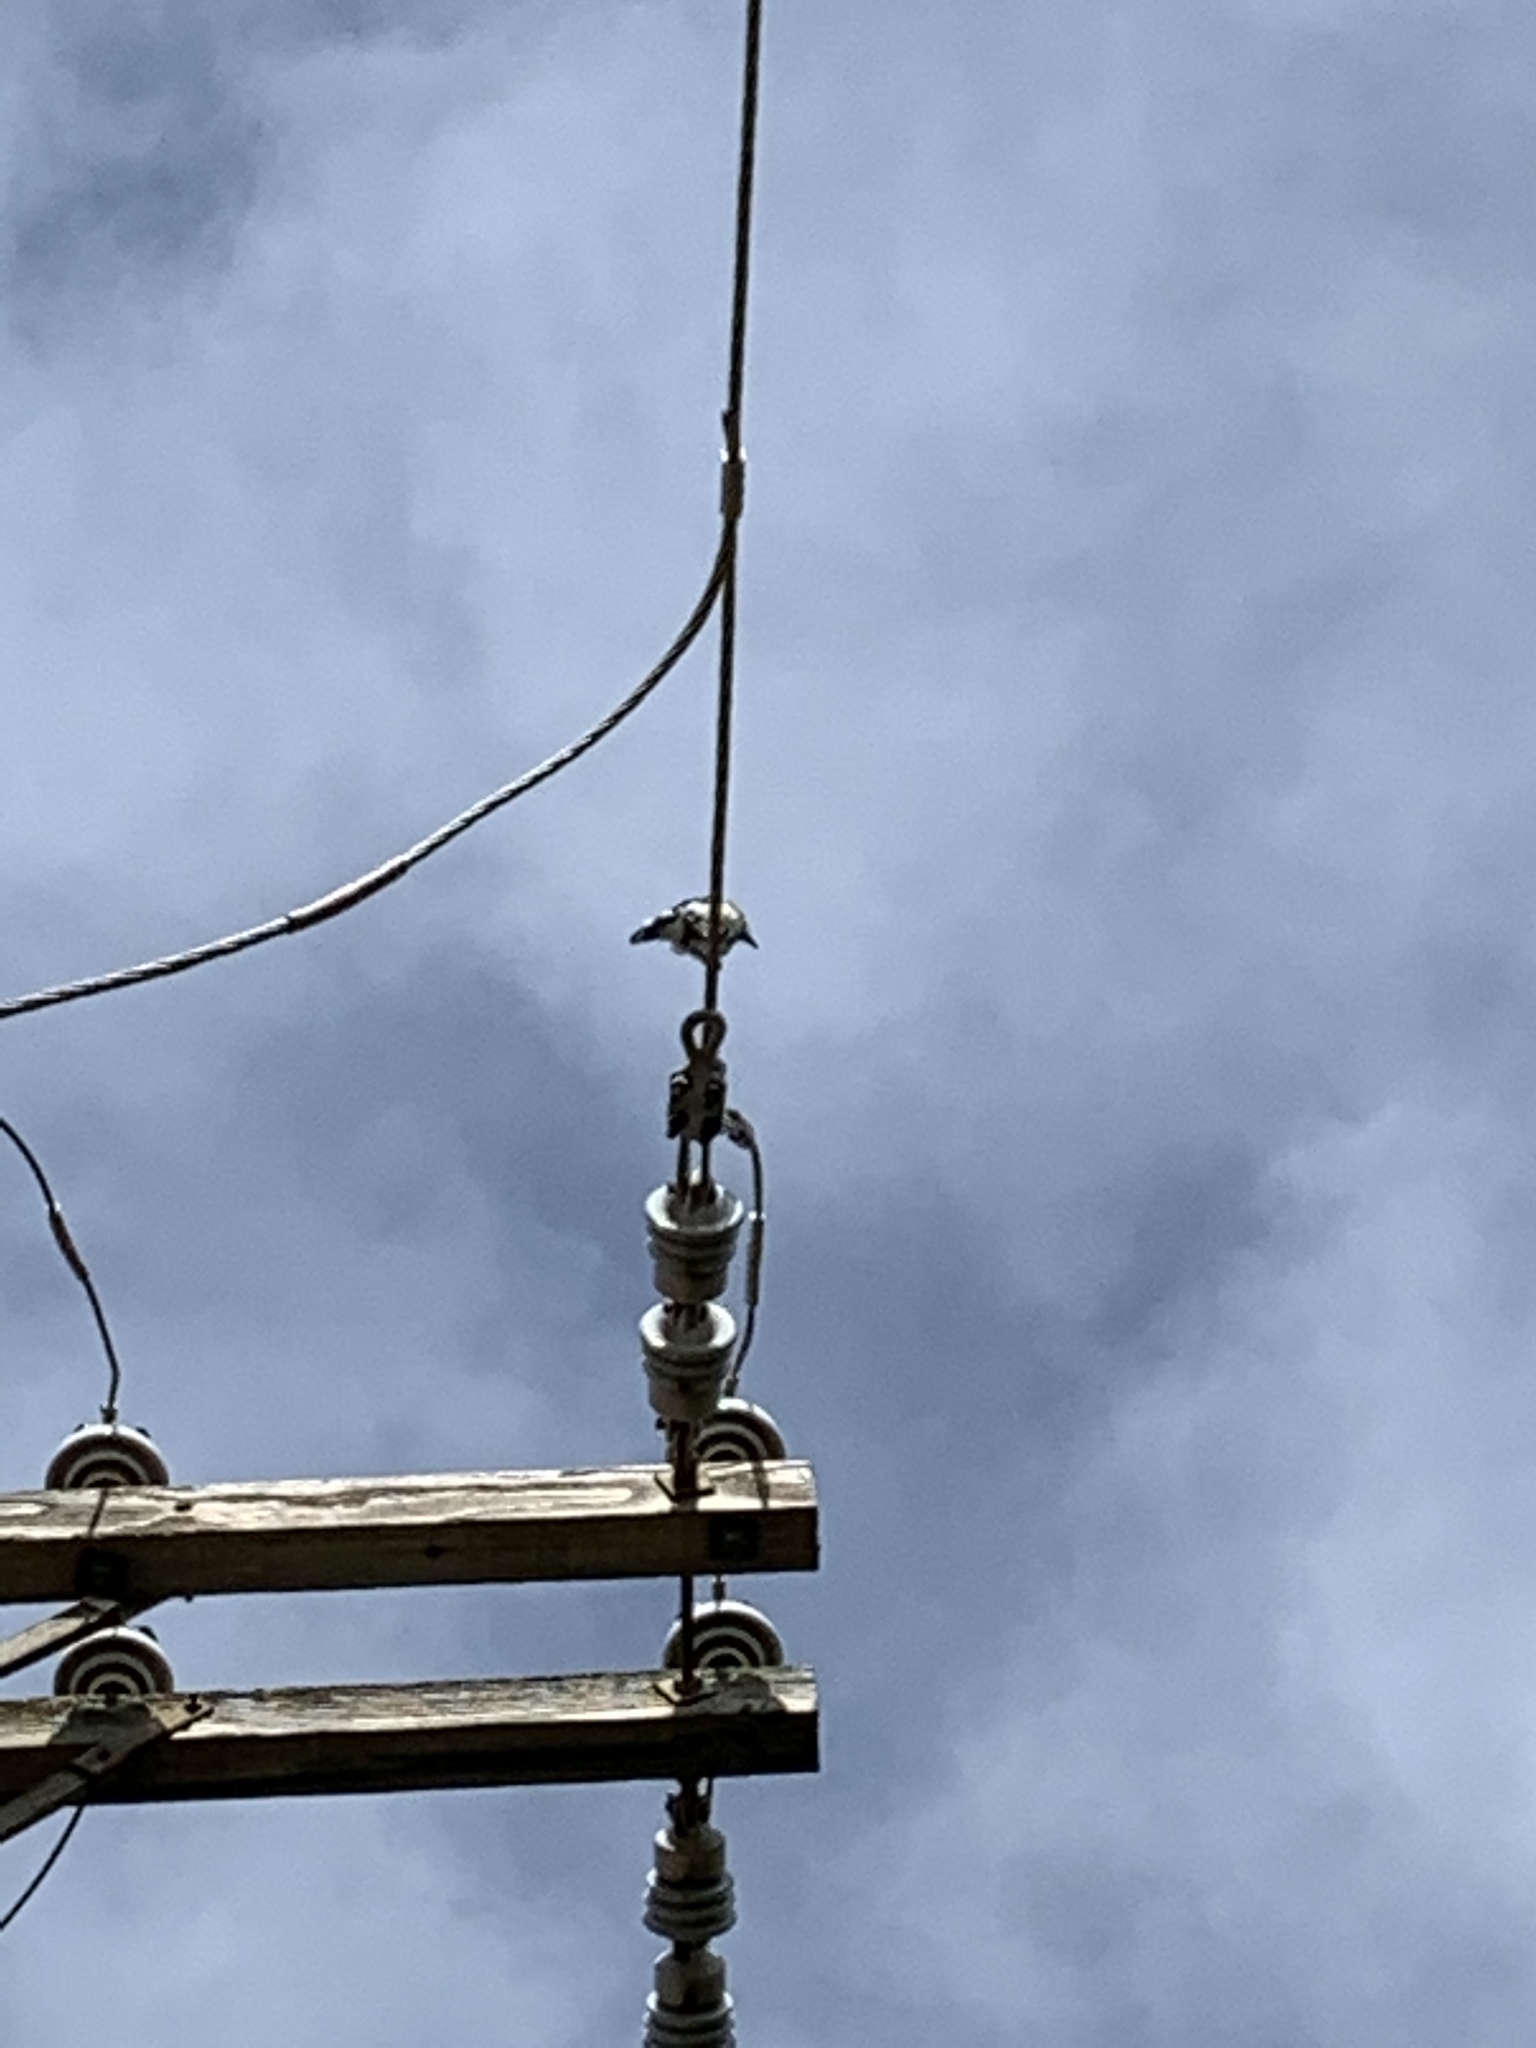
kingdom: Animalia
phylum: Chordata
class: Aves
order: Passeriformes
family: Corvidae
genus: Cyanocitta
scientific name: Cyanocitta cristata
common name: Blue jay
